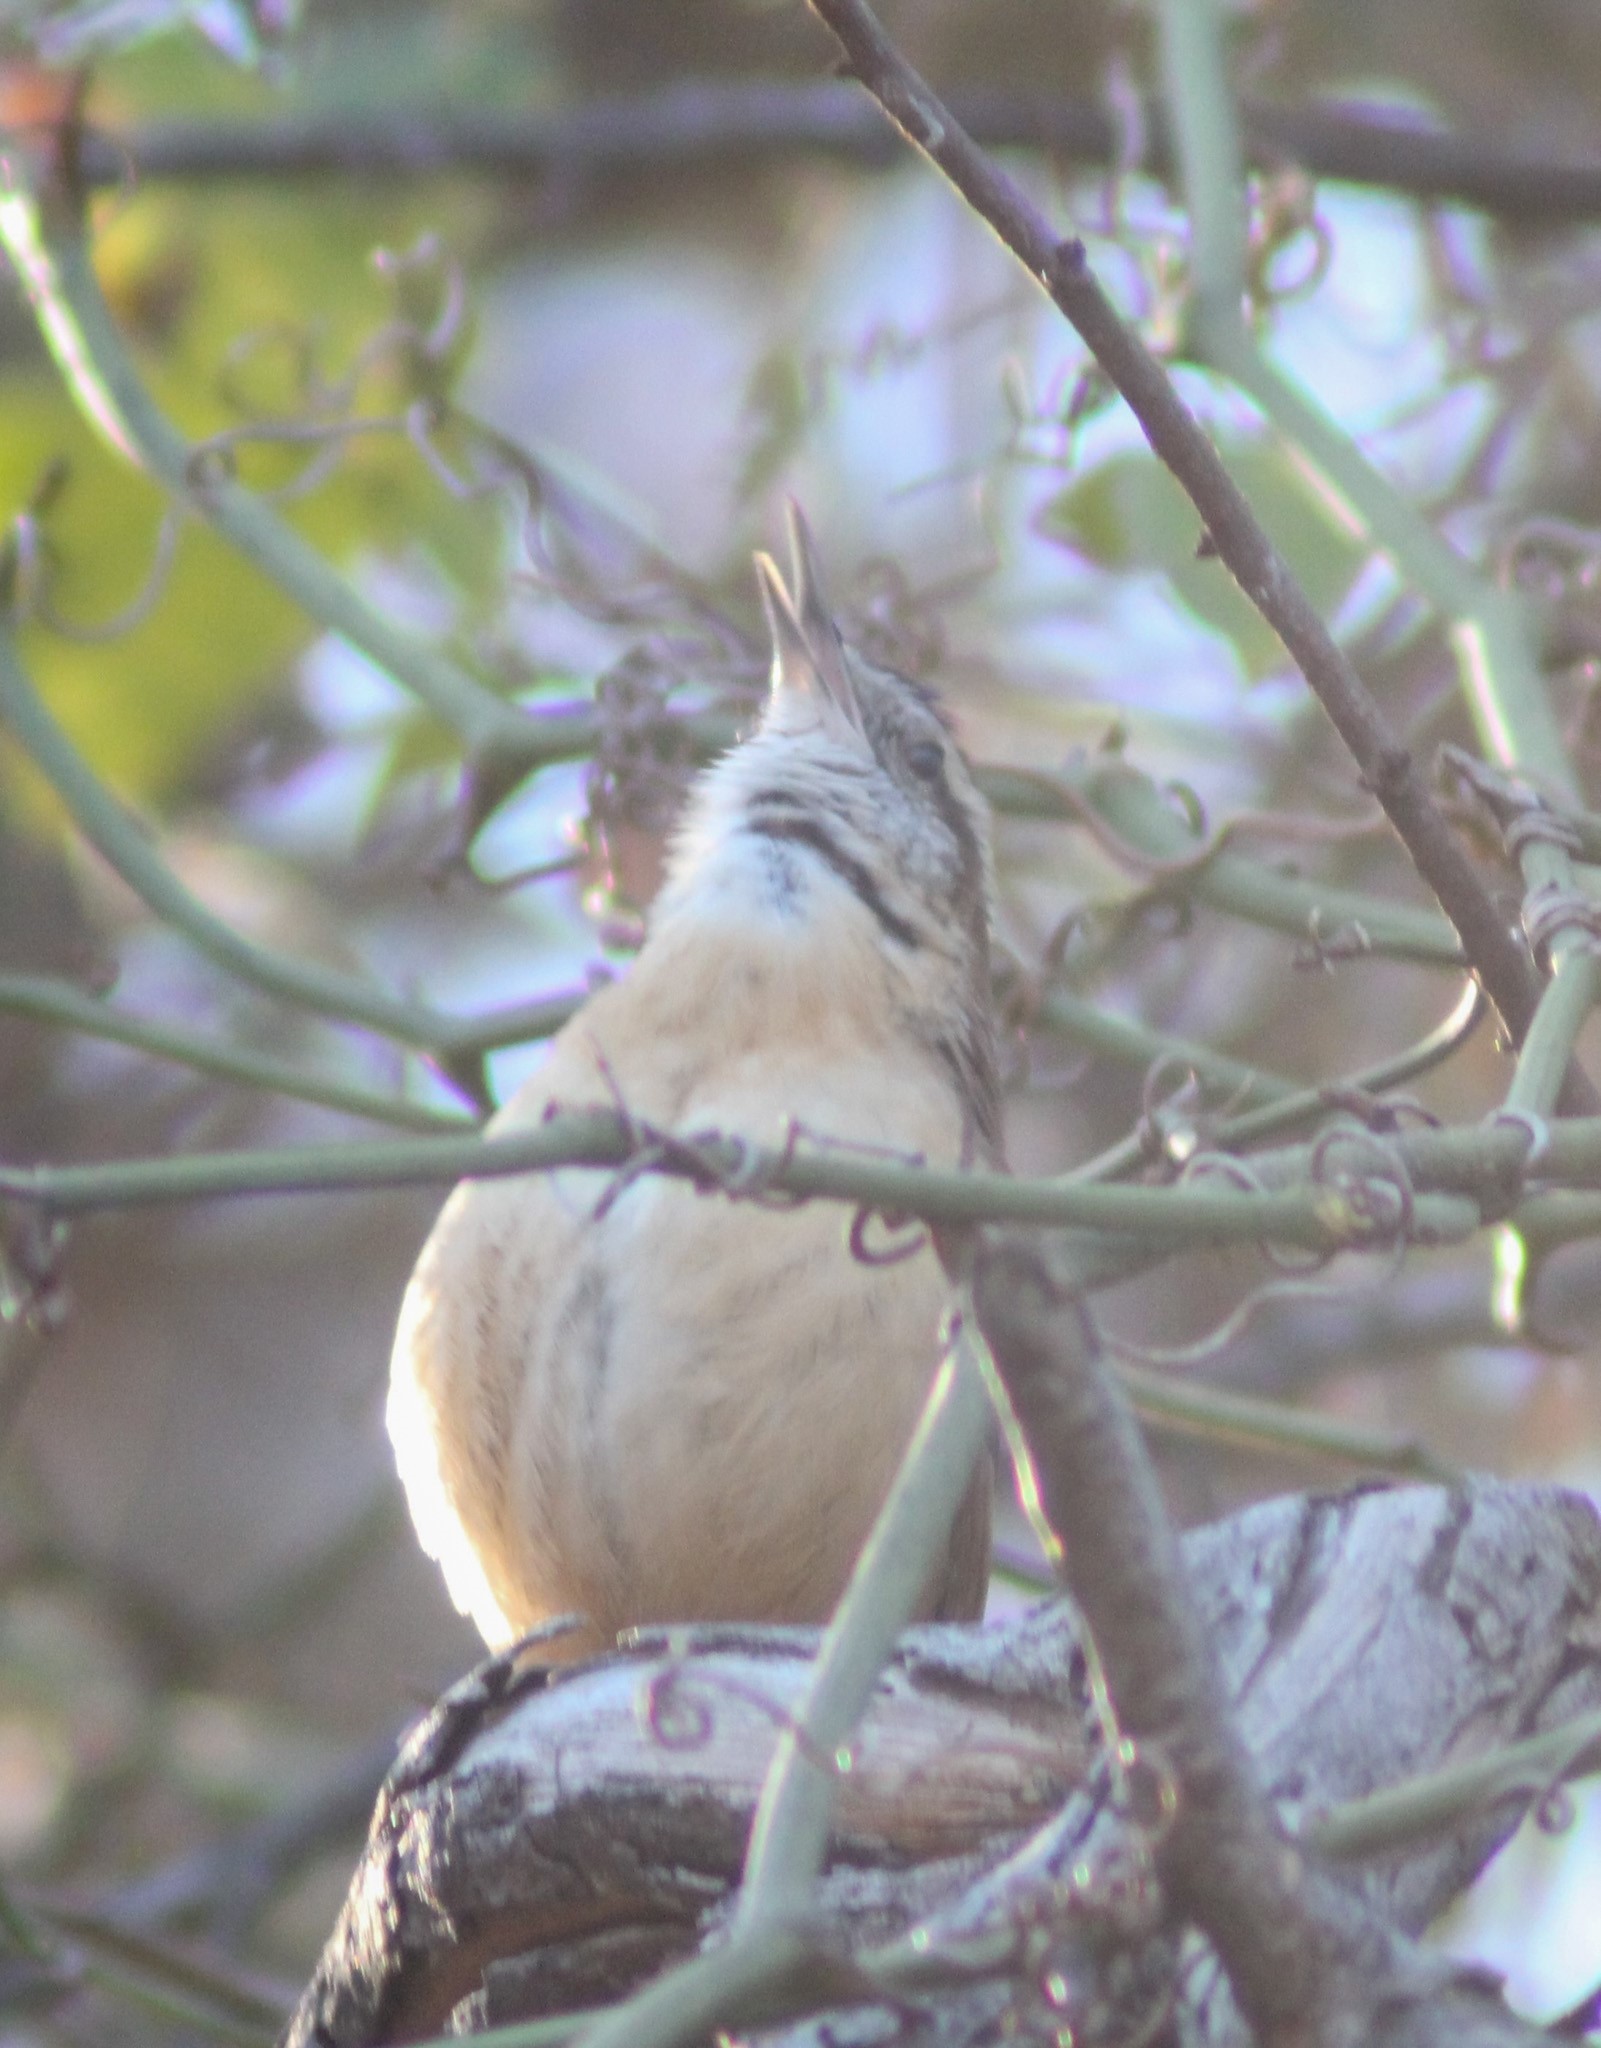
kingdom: Animalia
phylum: Chordata
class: Aves
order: Passeriformes
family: Troglodytidae
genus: Thryothorus
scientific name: Thryothorus ludovicianus
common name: Carolina wren
